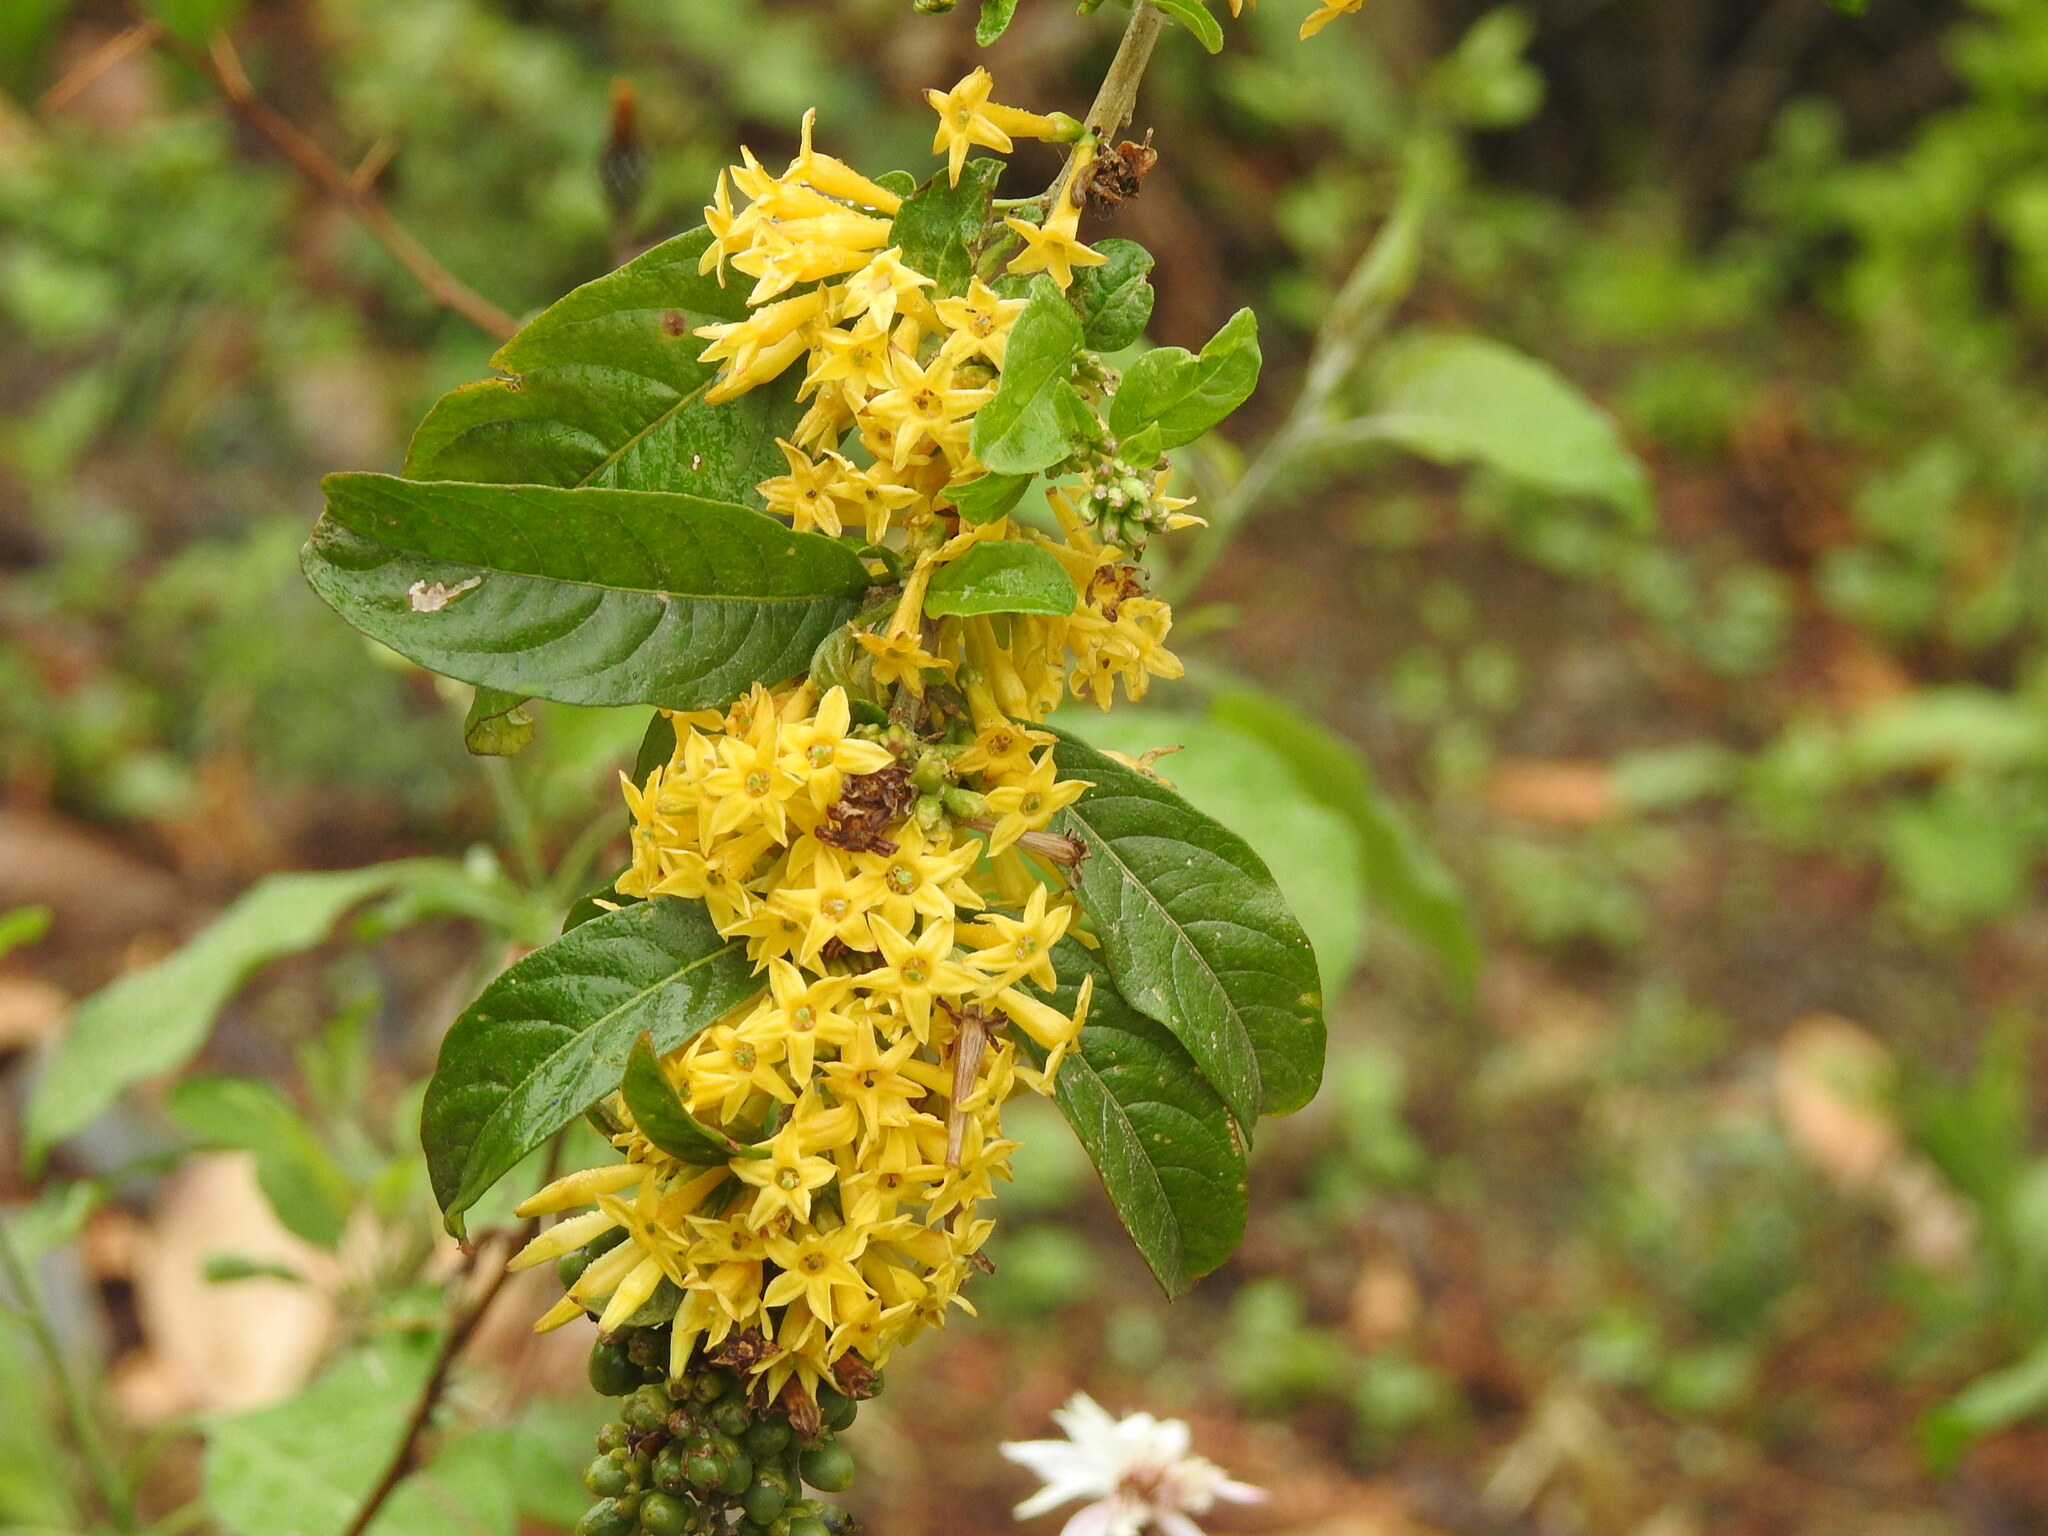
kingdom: Plantae
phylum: Tracheophyta
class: Magnoliopsida
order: Solanales
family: Solanaceae
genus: Cestrum
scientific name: Cestrum lorentzianum
